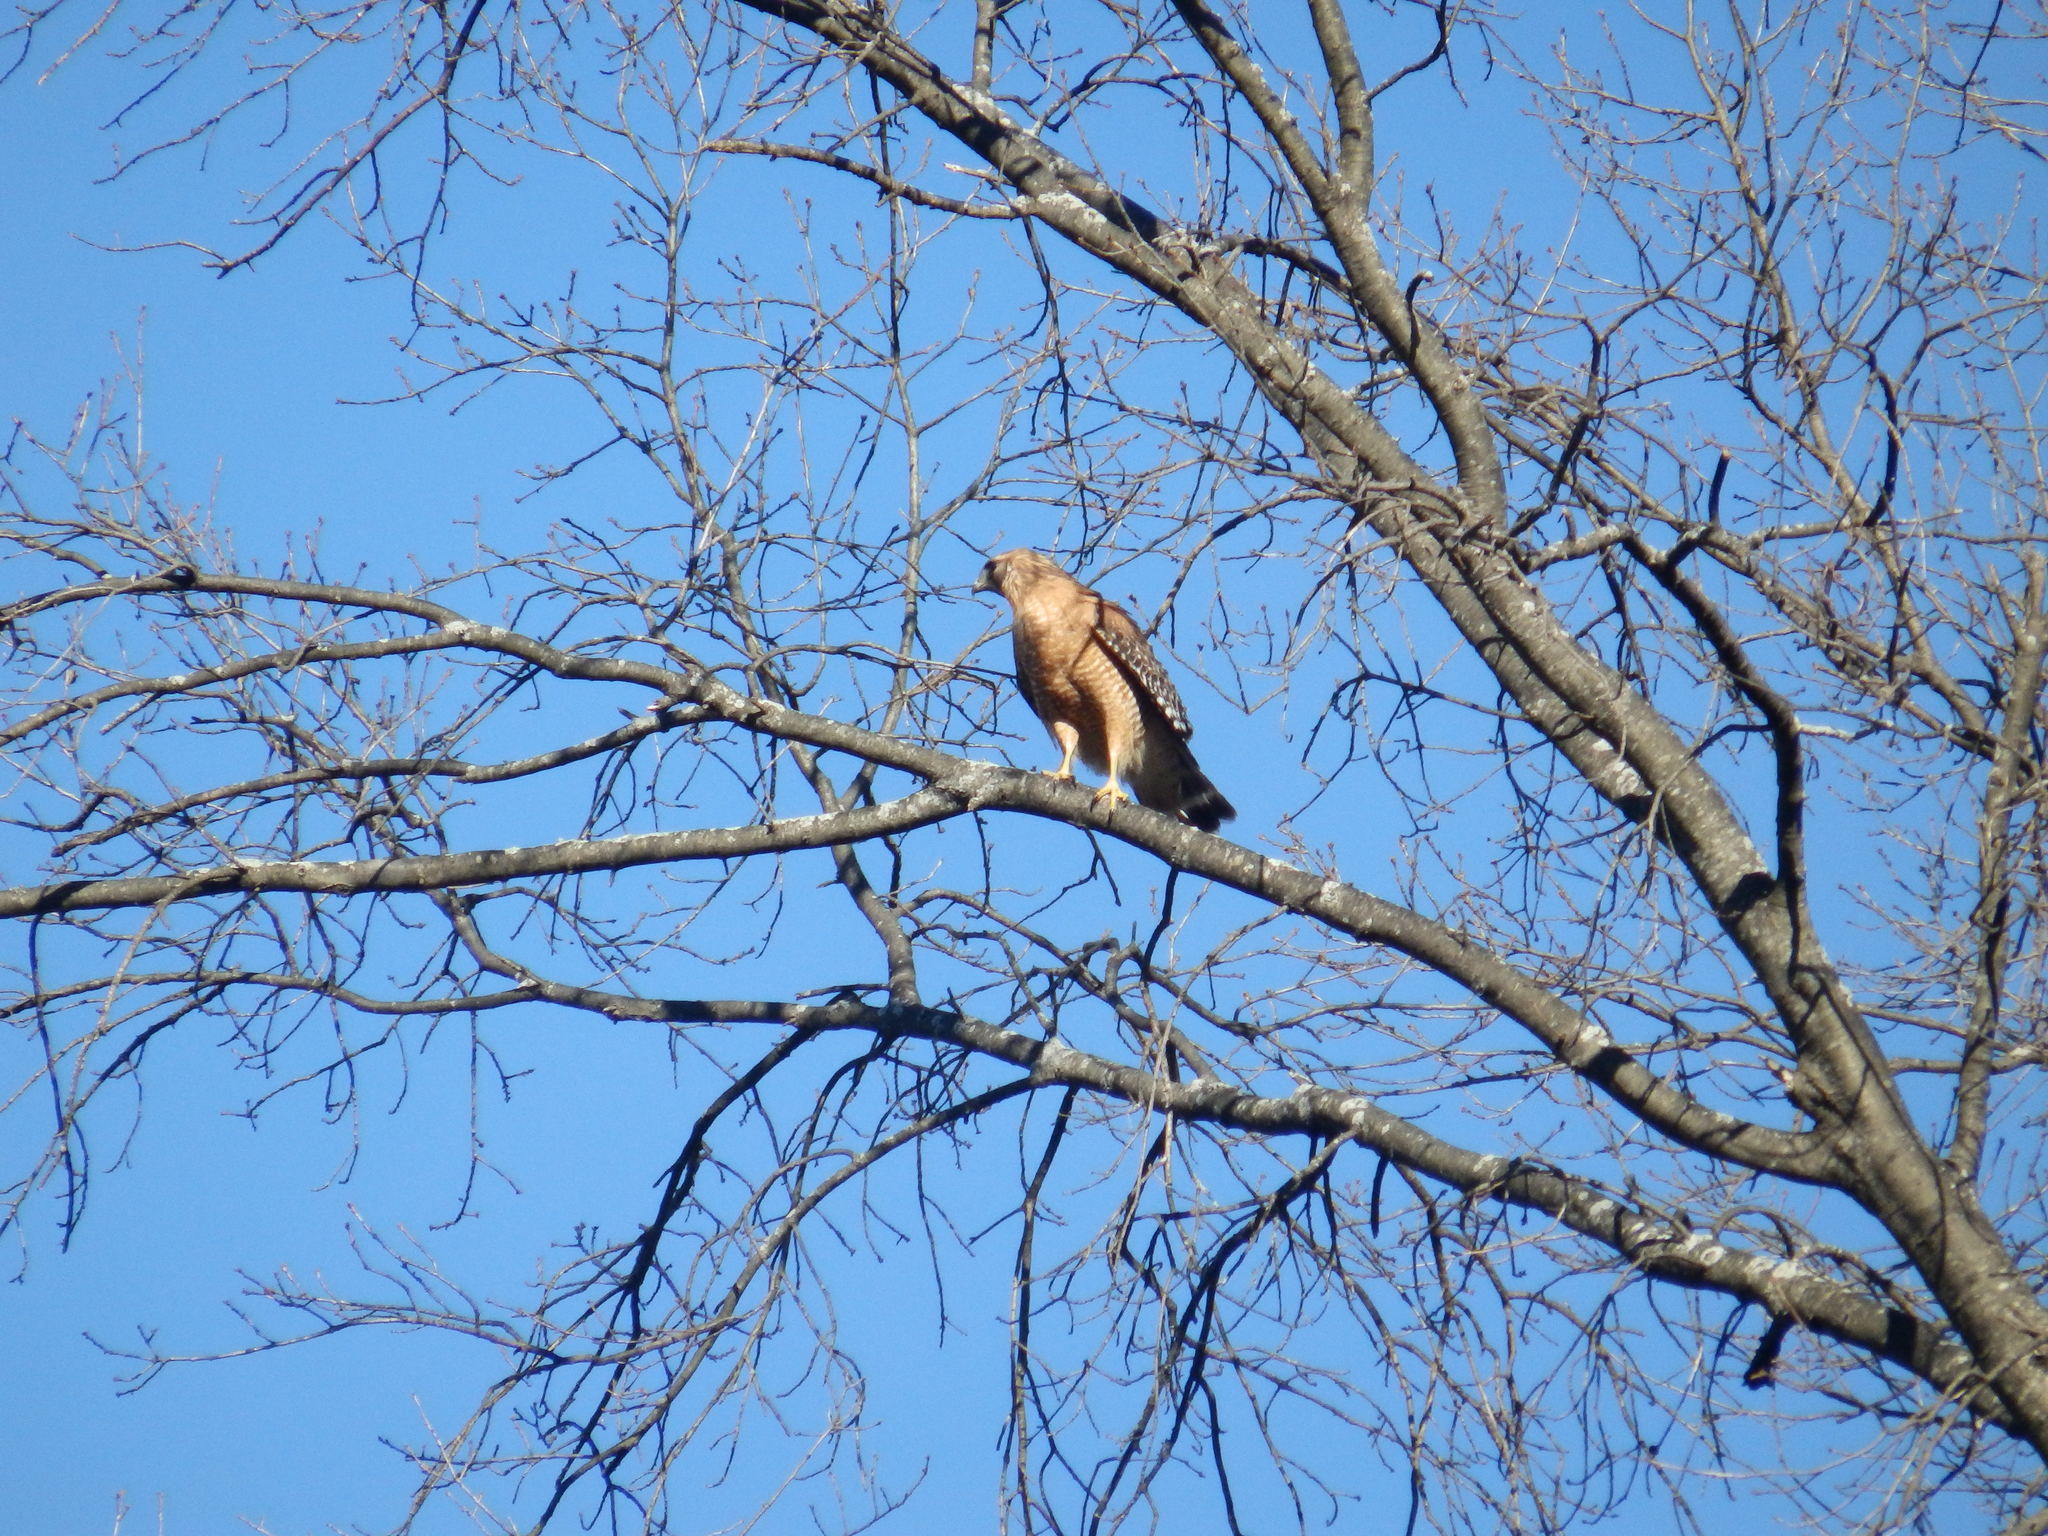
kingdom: Animalia
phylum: Chordata
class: Aves
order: Accipitriformes
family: Accipitridae
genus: Buteo
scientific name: Buteo lineatus
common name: Red-shouldered hawk
